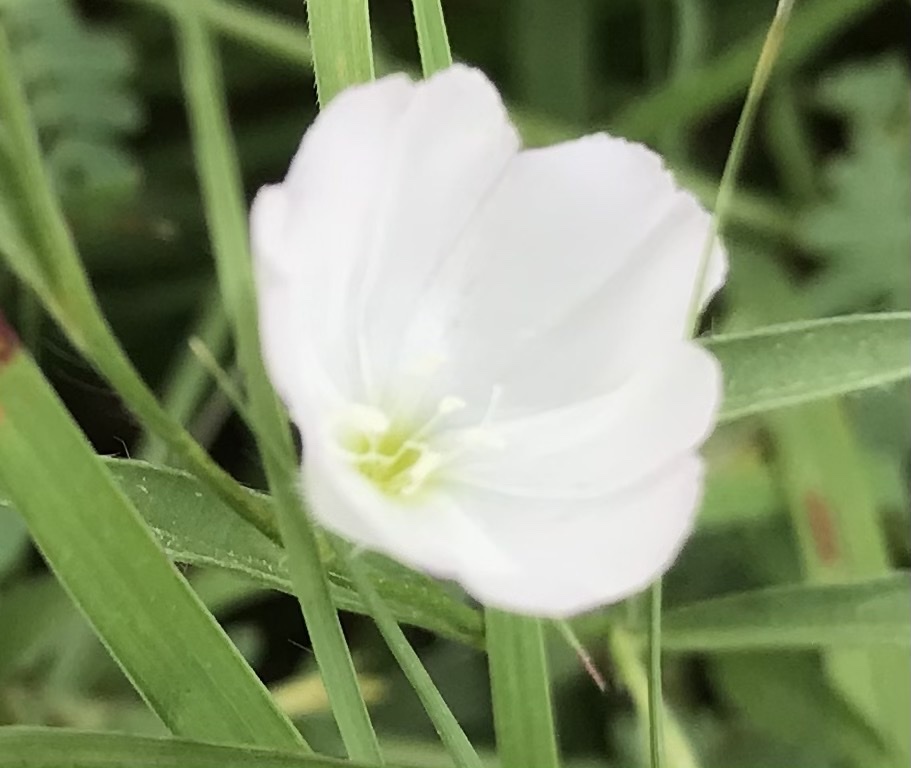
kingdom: Plantae
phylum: Tracheophyta
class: Magnoliopsida
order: Solanales
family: Convolvulaceae
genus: Evolvulus
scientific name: Evolvulus sericeus
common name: Blue dots
